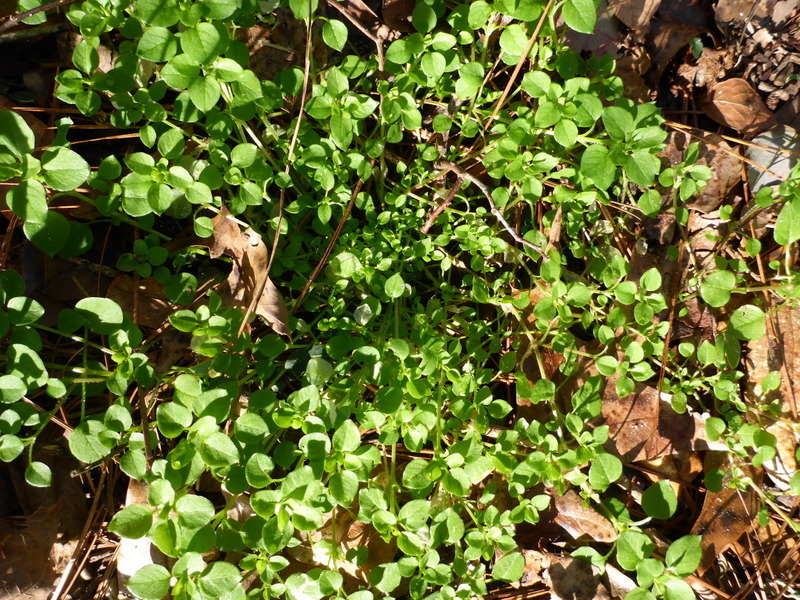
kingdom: Plantae
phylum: Tracheophyta
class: Magnoliopsida
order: Caryophyllales
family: Caryophyllaceae
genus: Stellaria
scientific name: Stellaria media
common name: Common chickweed
